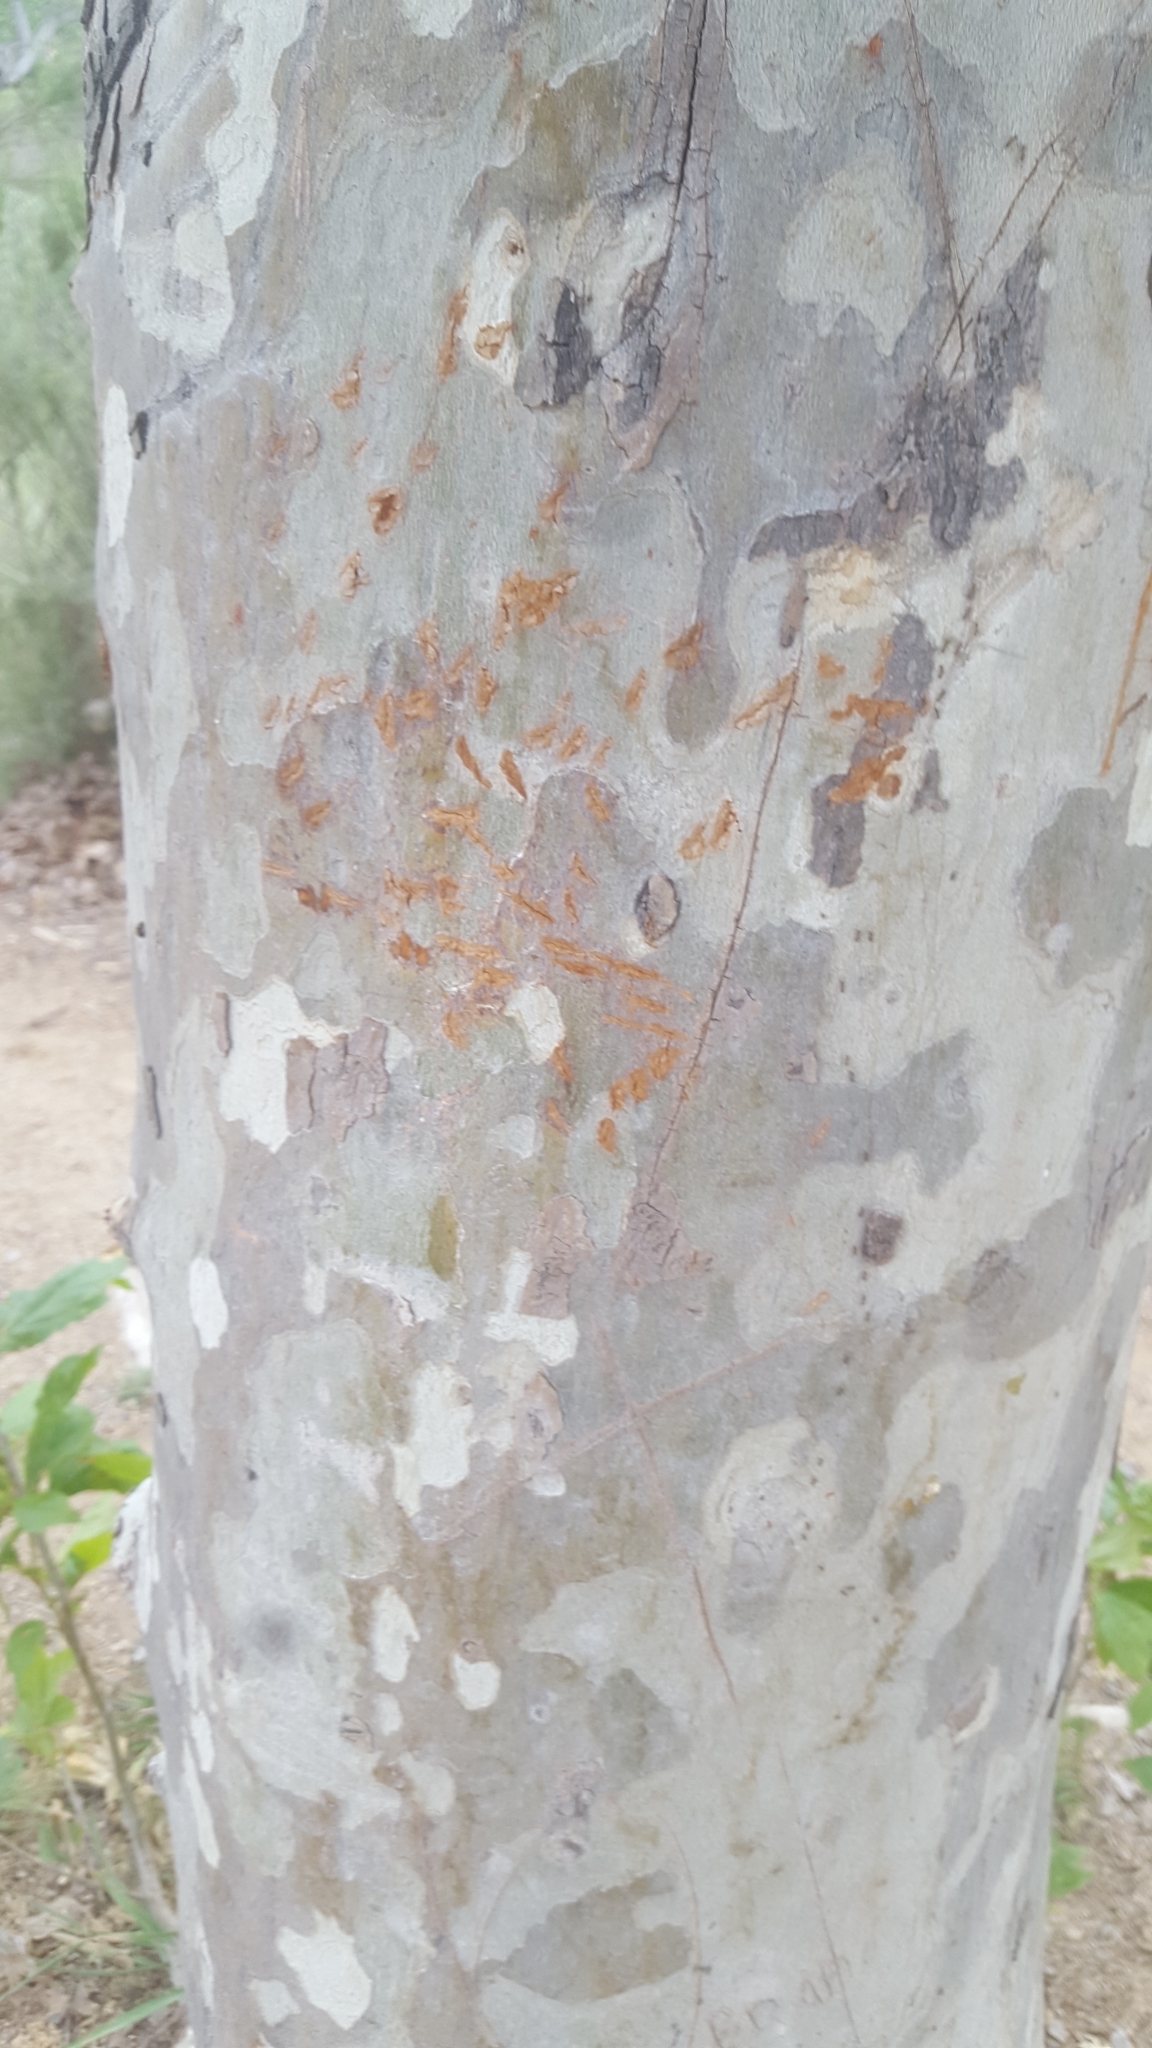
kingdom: Plantae
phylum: Tracheophyta
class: Magnoliopsida
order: Proteales
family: Platanaceae
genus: Platanus
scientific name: Platanus racemosa
